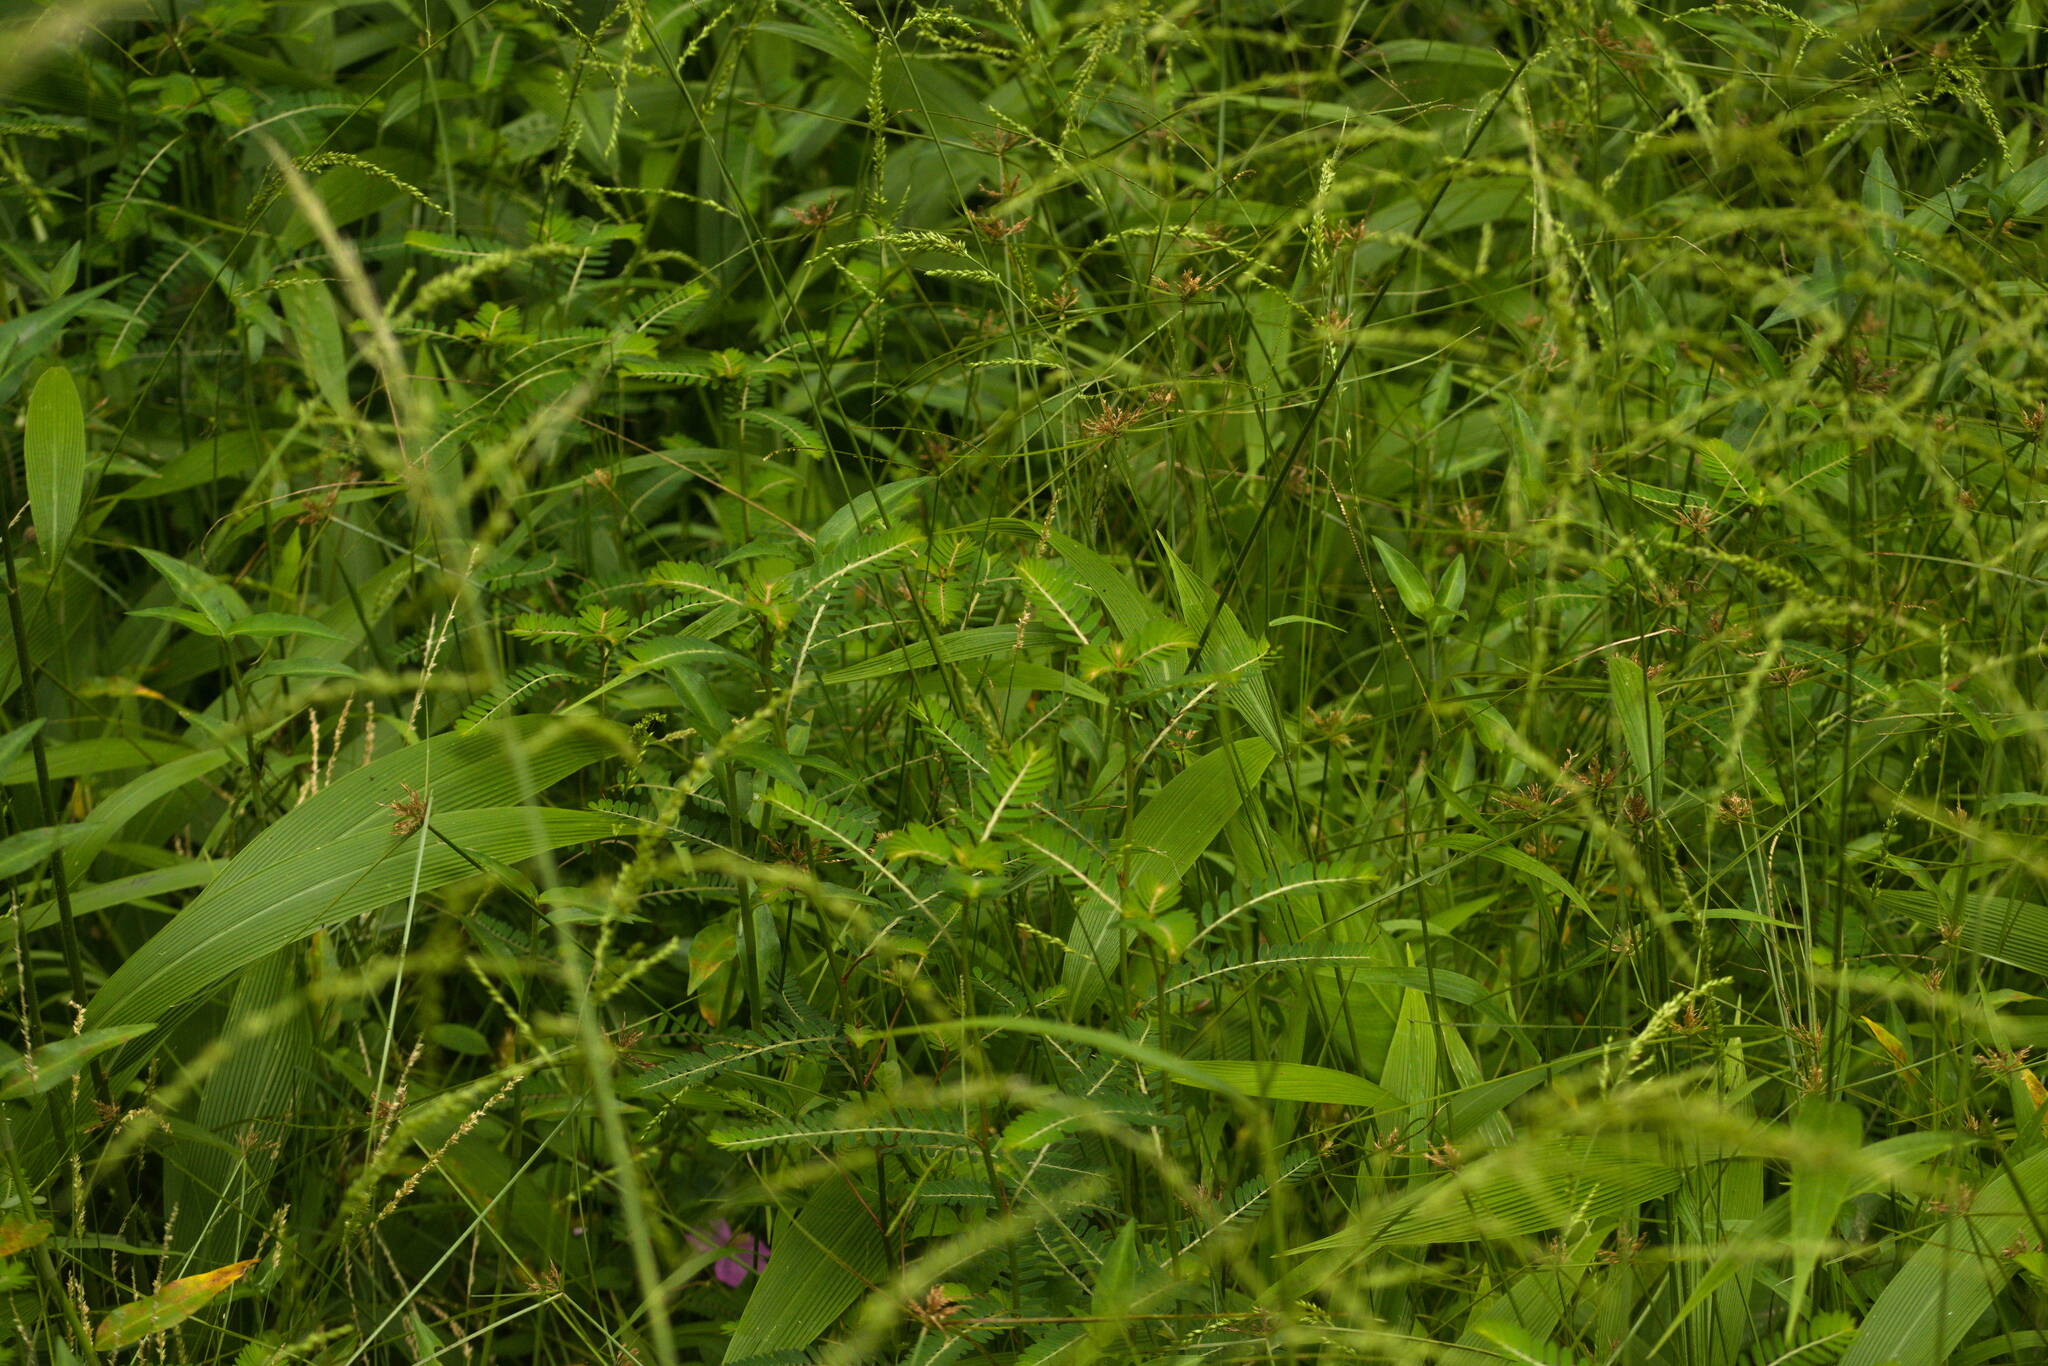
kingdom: Plantae
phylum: Tracheophyta
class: Magnoliopsida
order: Malpighiales
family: Phyllanthaceae
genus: Phyllanthus
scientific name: Phyllanthus urinaria
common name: Chamber bitter
